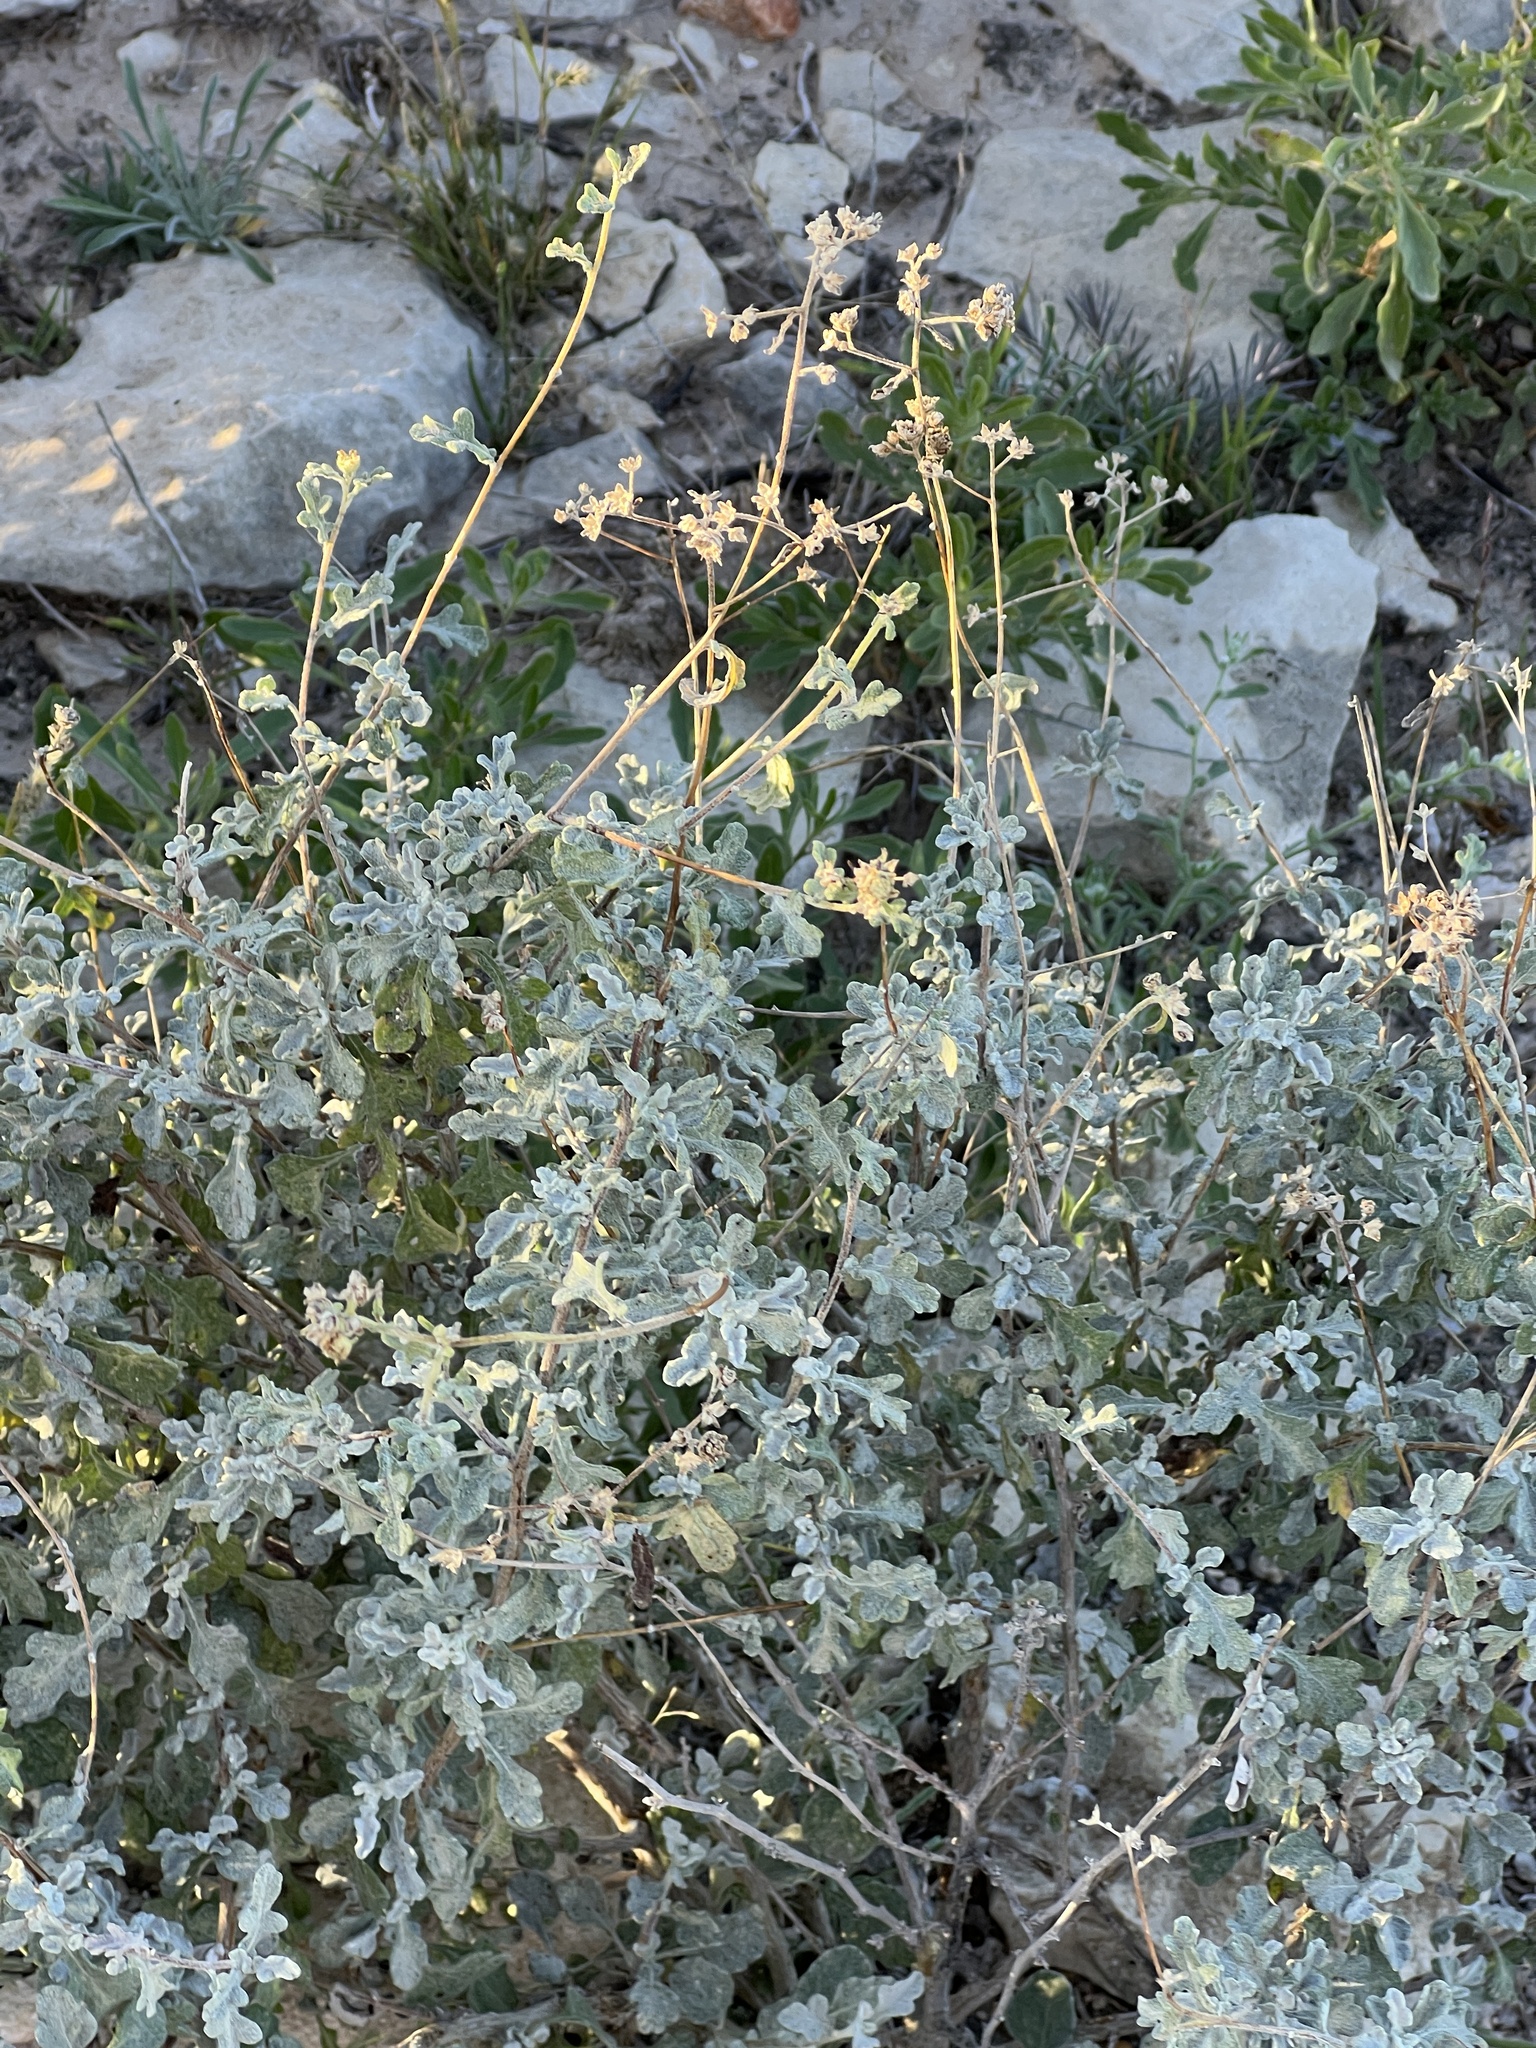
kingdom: Plantae
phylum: Tracheophyta
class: Magnoliopsida
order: Asterales
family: Asteraceae
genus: Parthenium
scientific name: Parthenium incanum
